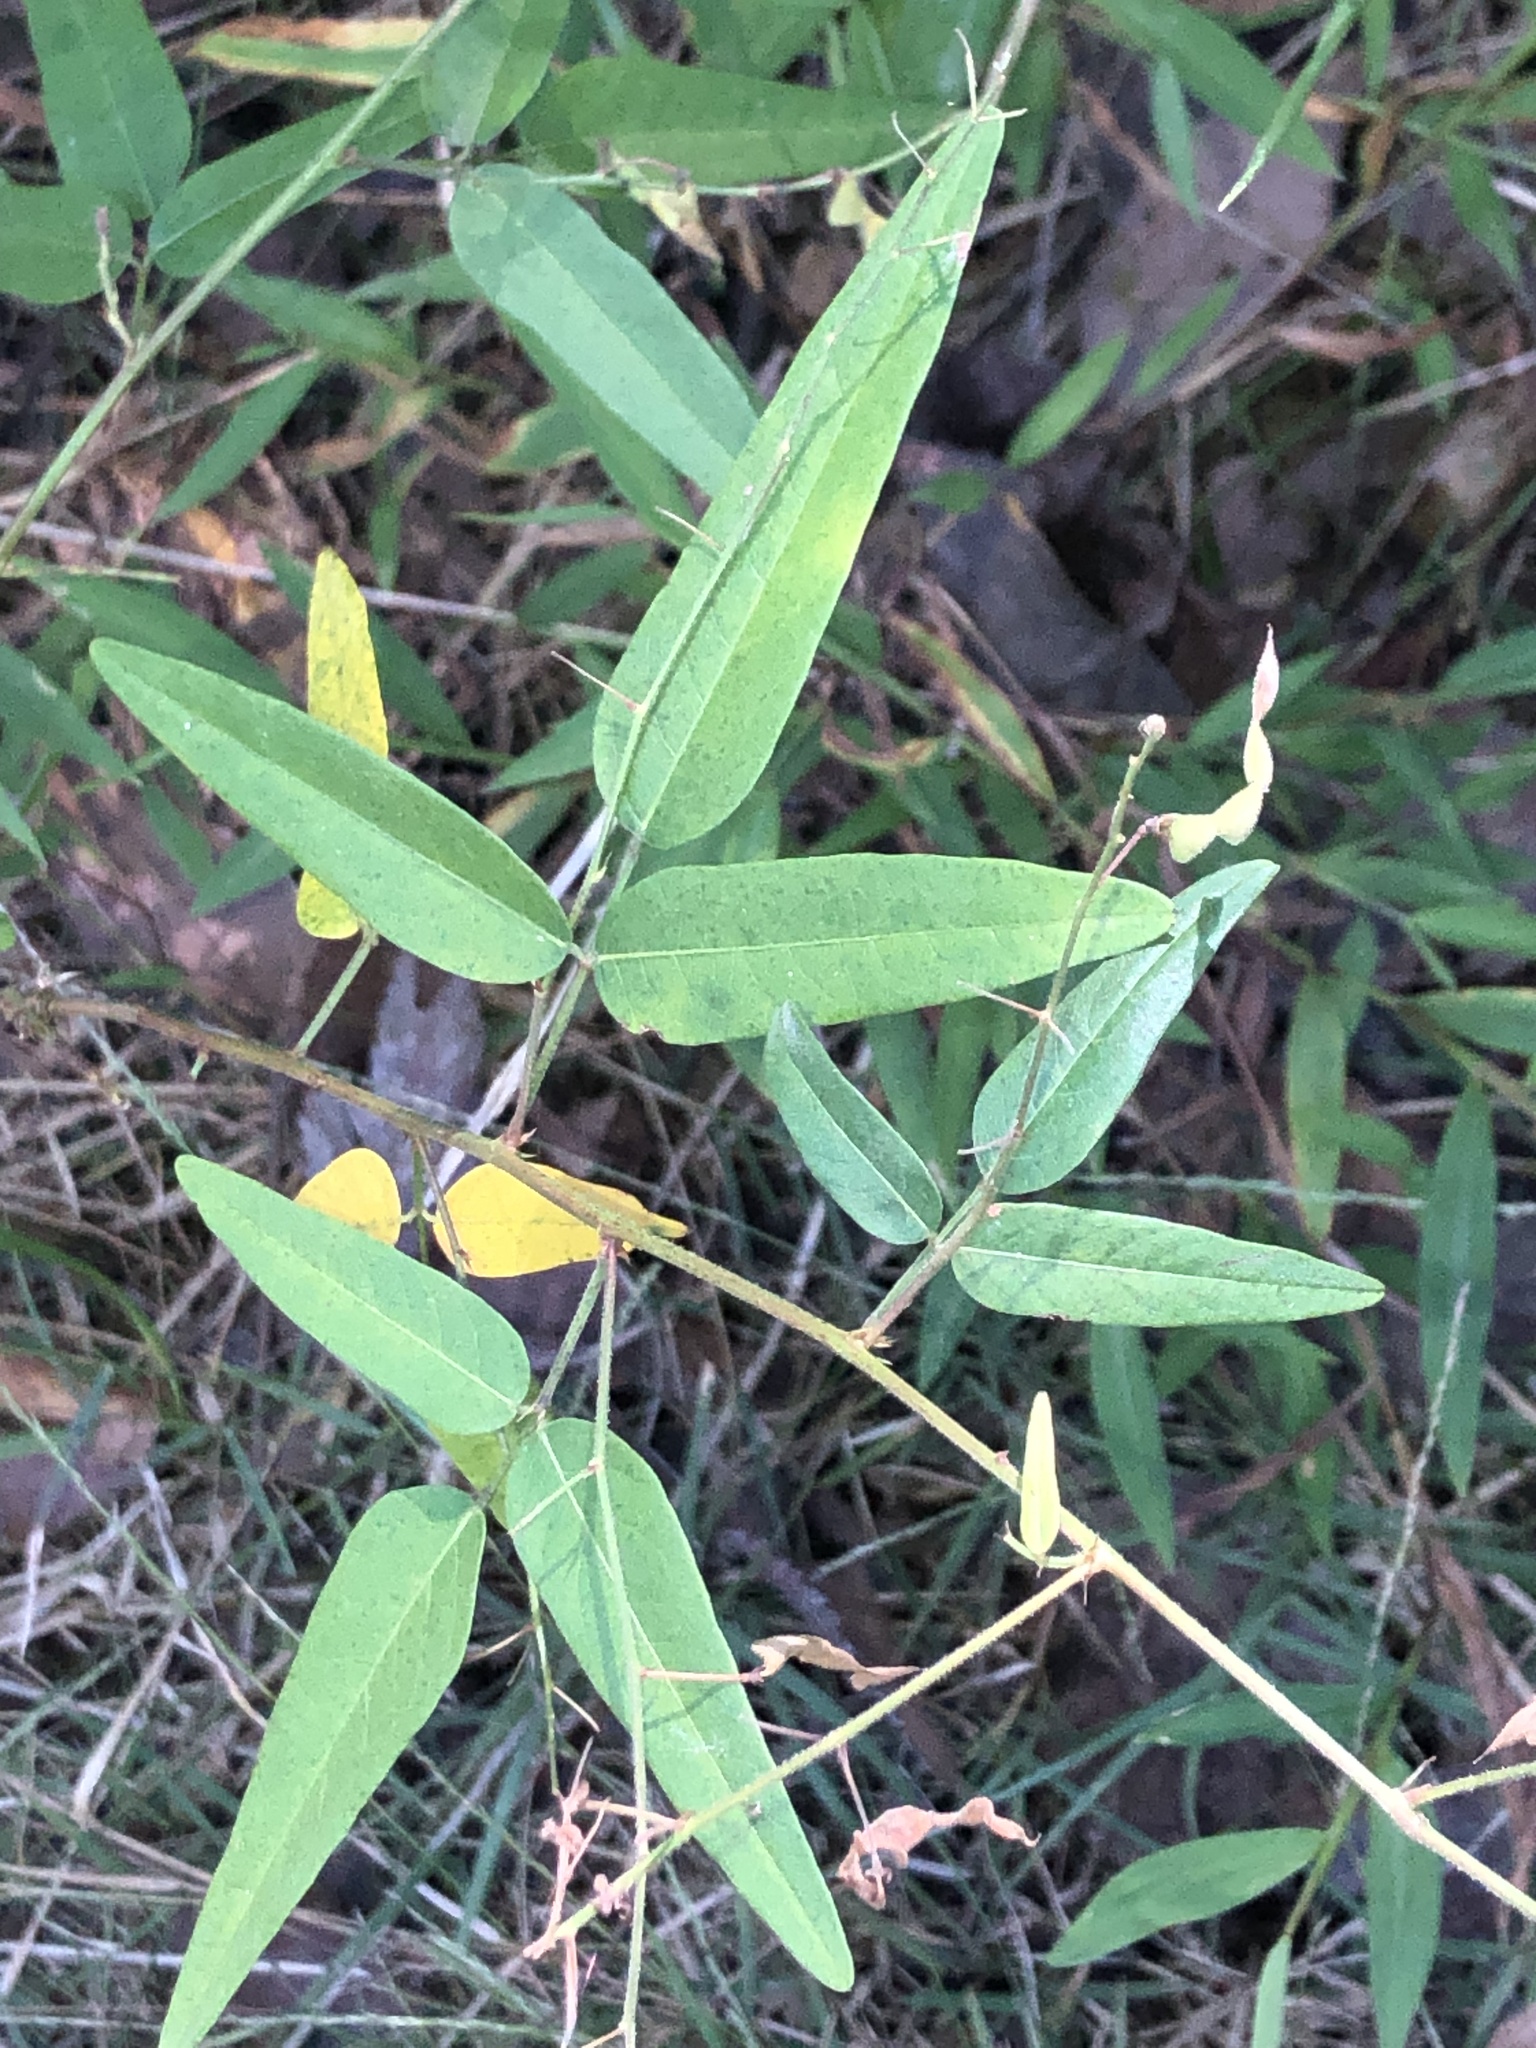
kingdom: Plantae
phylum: Tracheophyta
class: Magnoliopsida
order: Fabales
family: Fabaceae
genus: Desmodium
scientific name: Desmodium paniculatum
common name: Panicled tick-clover
